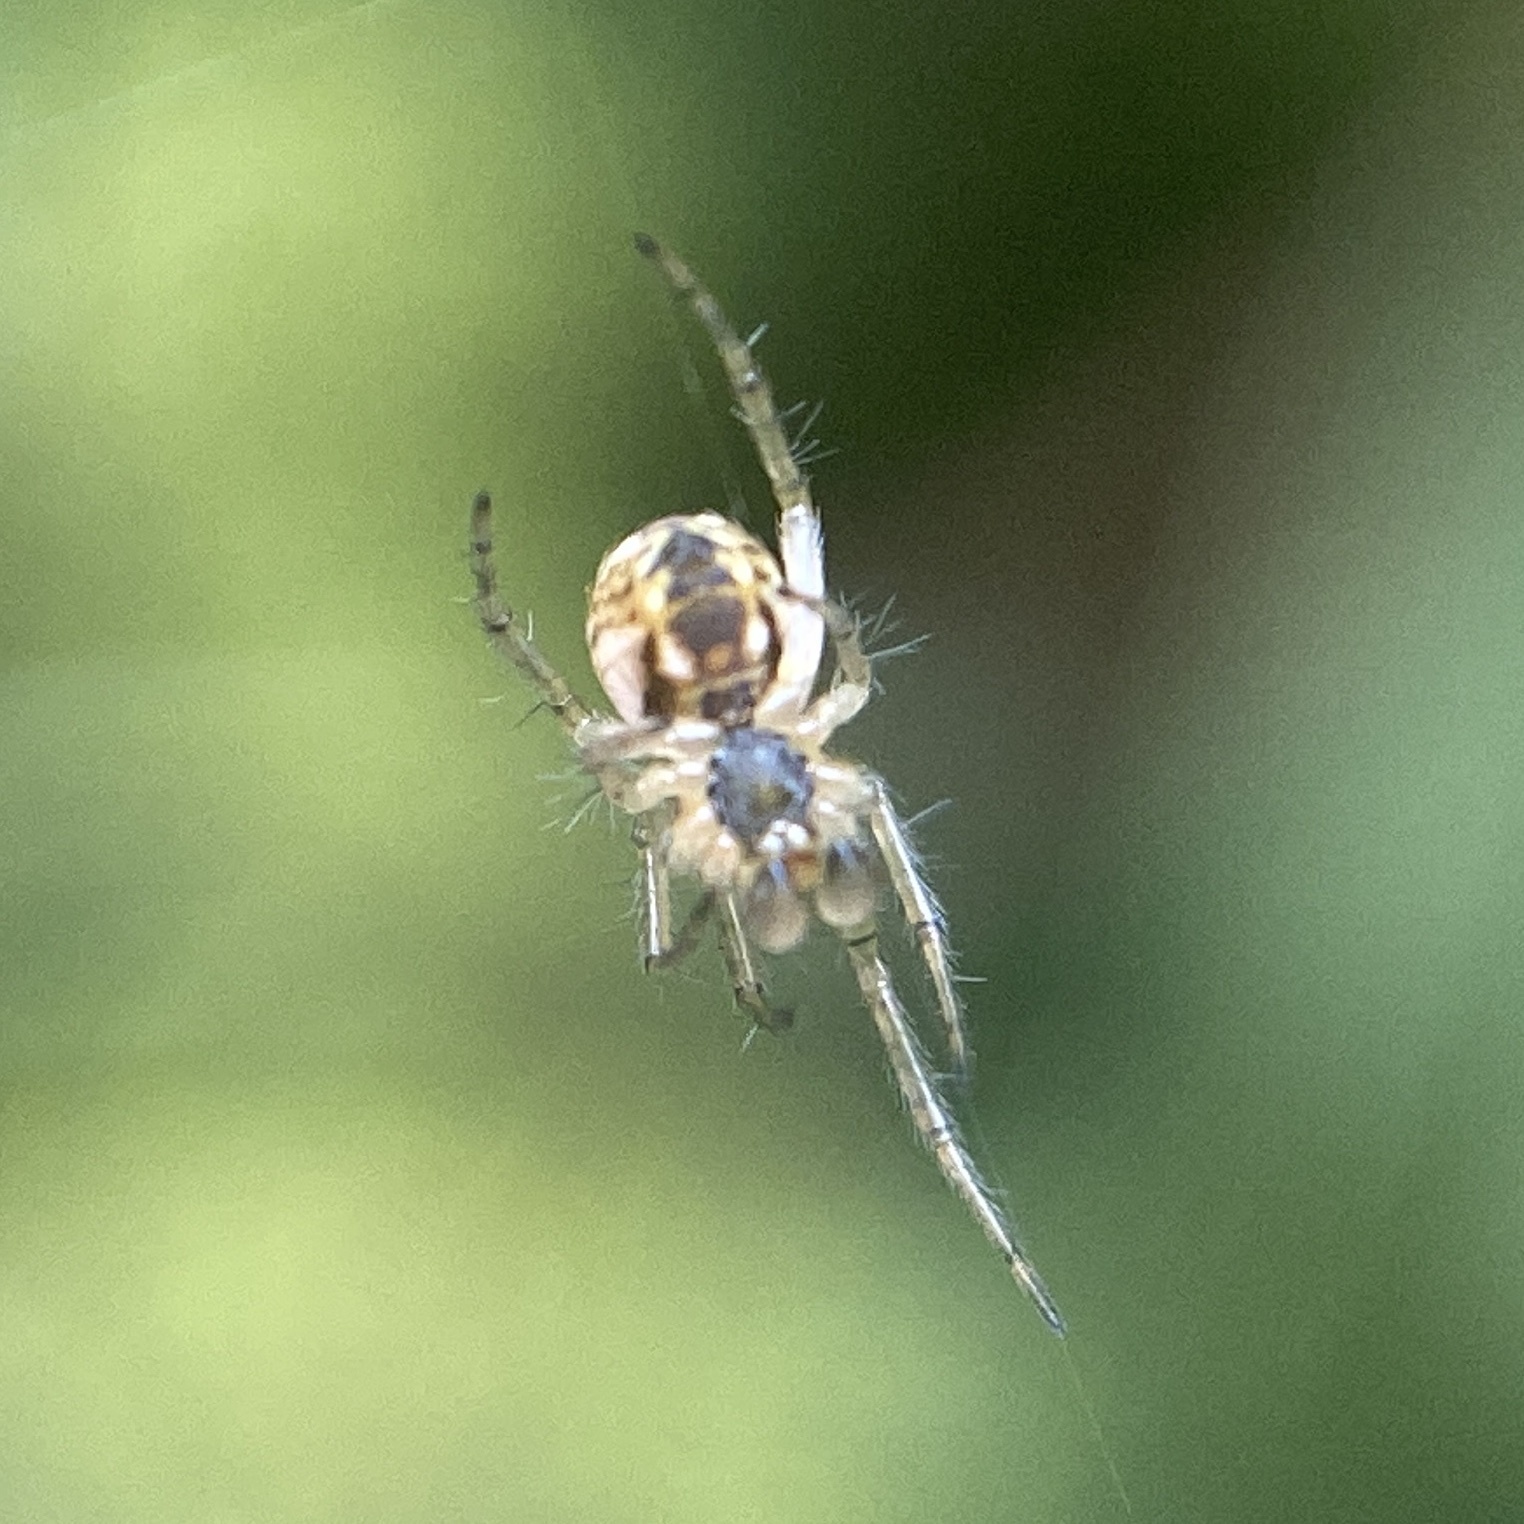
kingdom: Animalia
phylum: Arthropoda
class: Arachnida
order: Araneae
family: Araneidae
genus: Mangora
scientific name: Mangora acalypha
